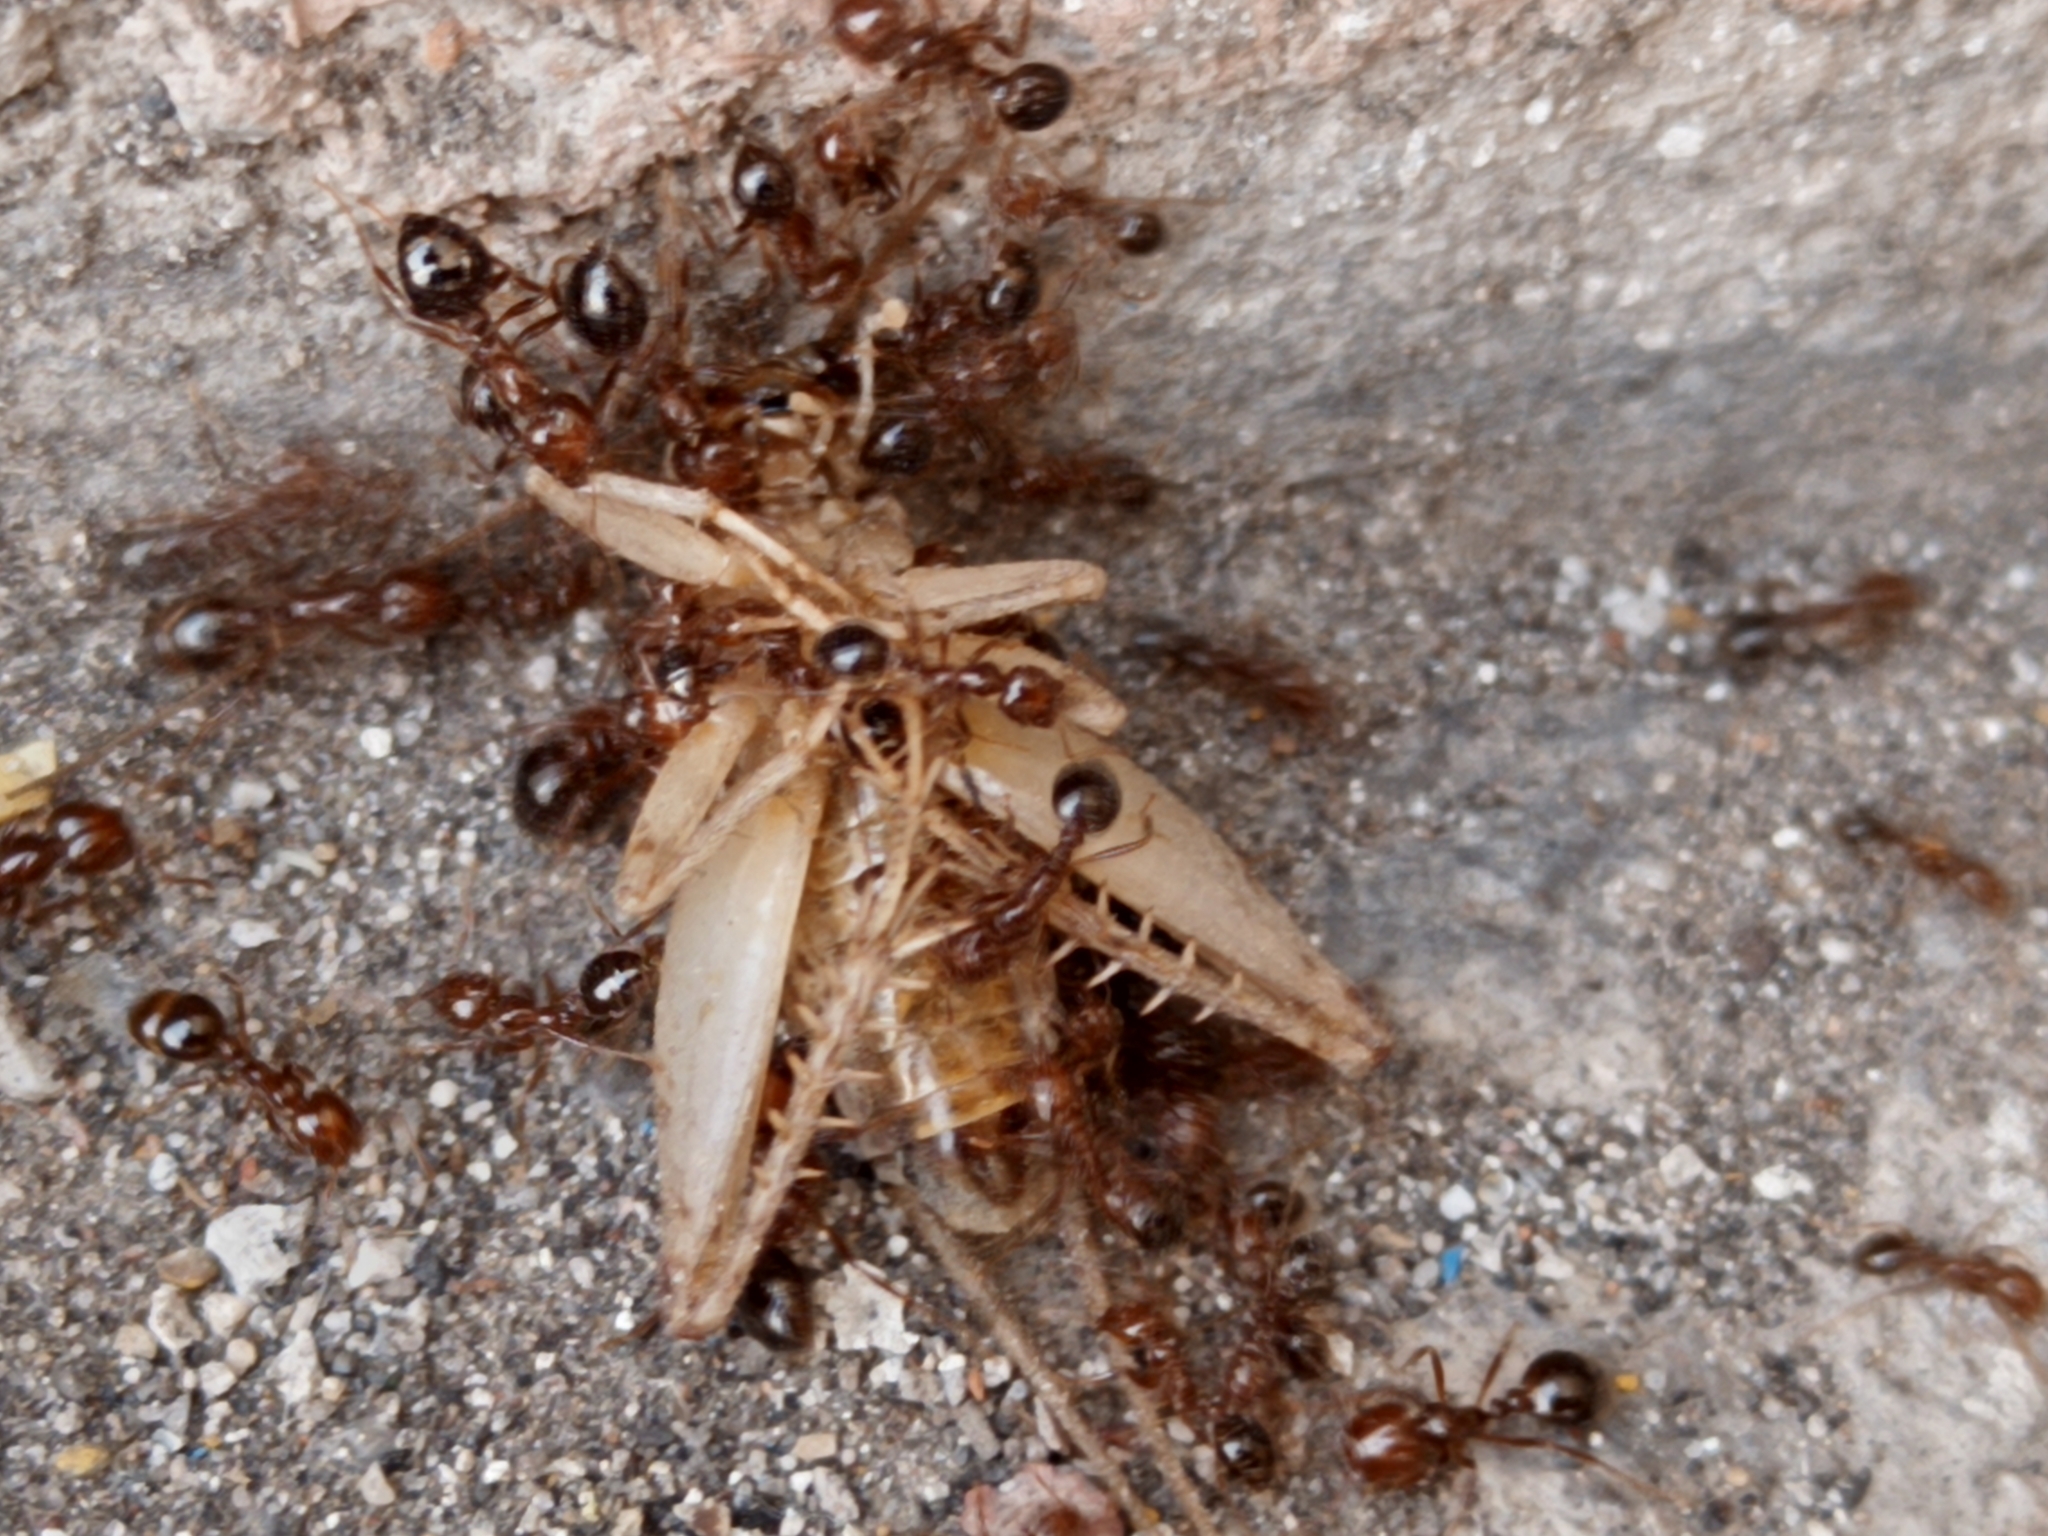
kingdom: Animalia
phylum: Arthropoda
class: Insecta
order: Hymenoptera
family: Formicidae
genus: Solenopsis
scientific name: Solenopsis invicta
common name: Red imported fire ant
